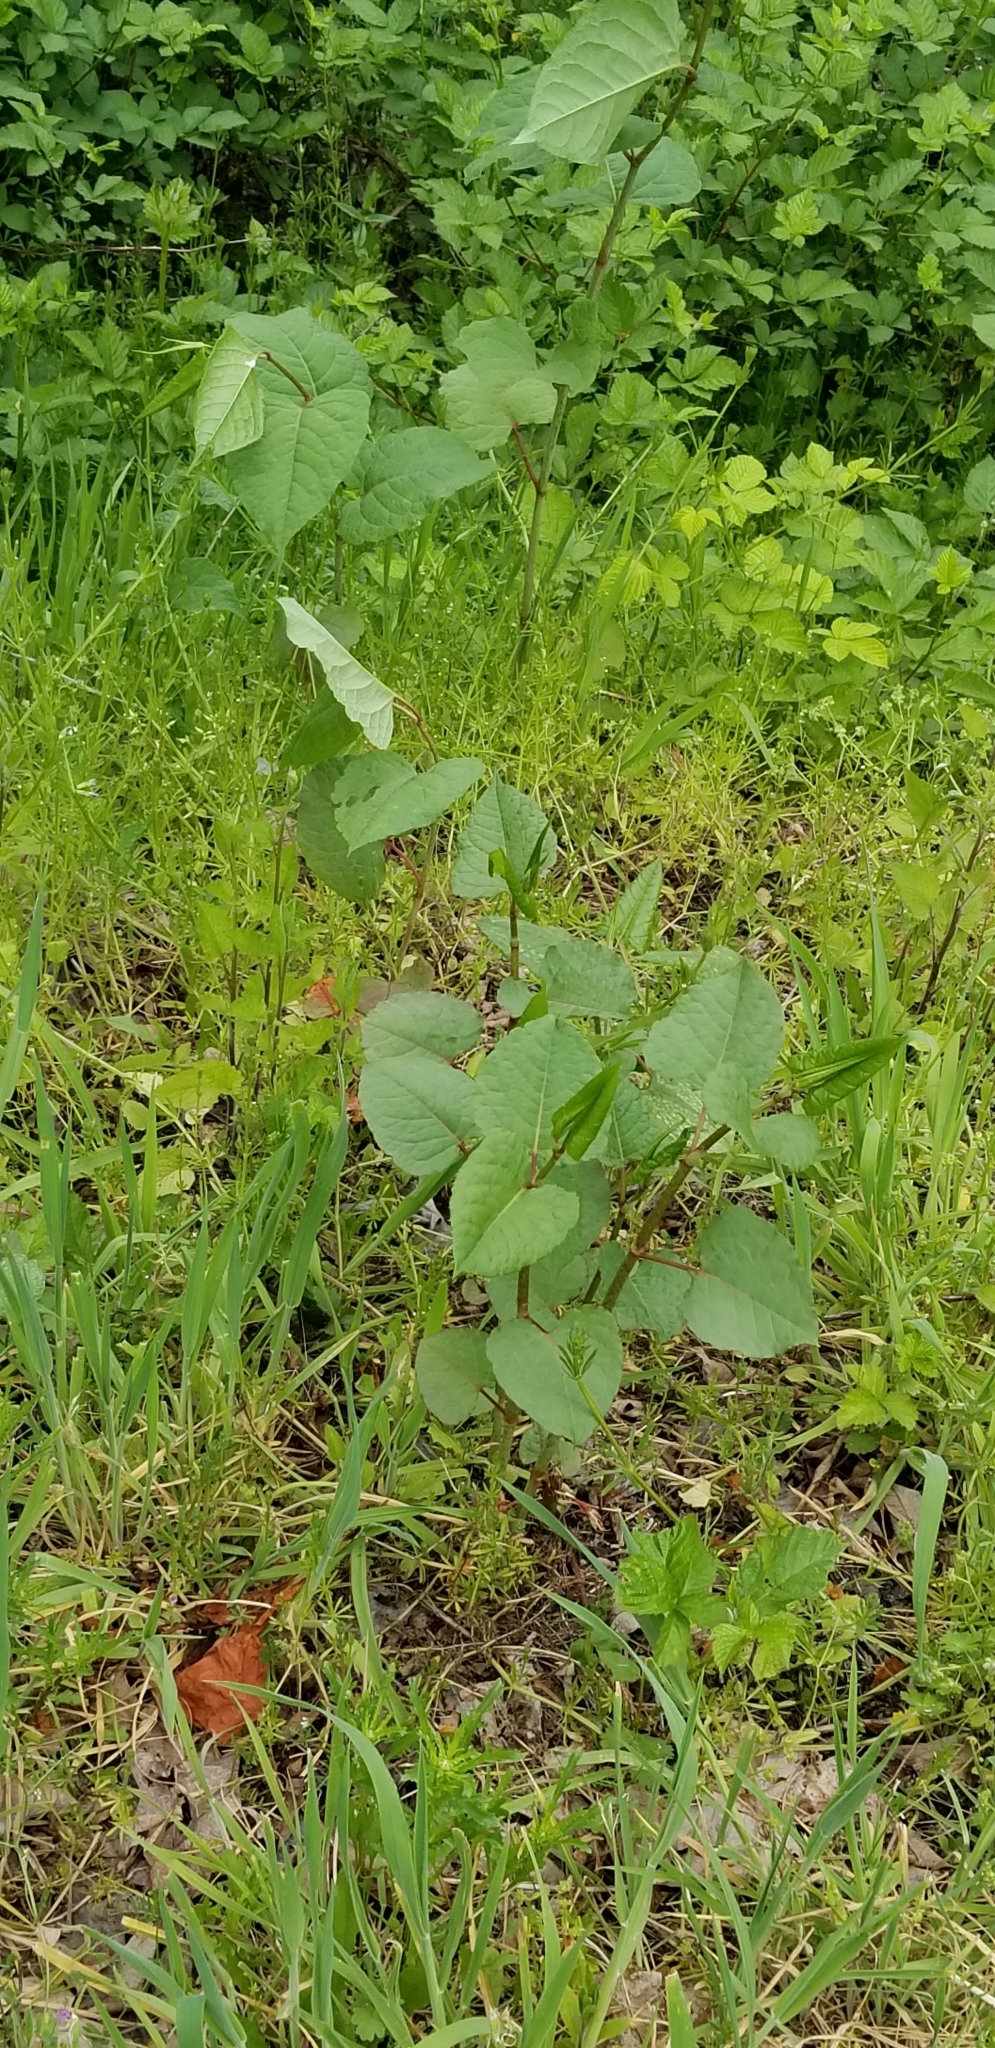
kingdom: Plantae
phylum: Tracheophyta
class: Magnoliopsida
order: Caryophyllales
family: Polygonaceae
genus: Reynoutria
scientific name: Reynoutria bohemica
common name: Bohemian knotweed
